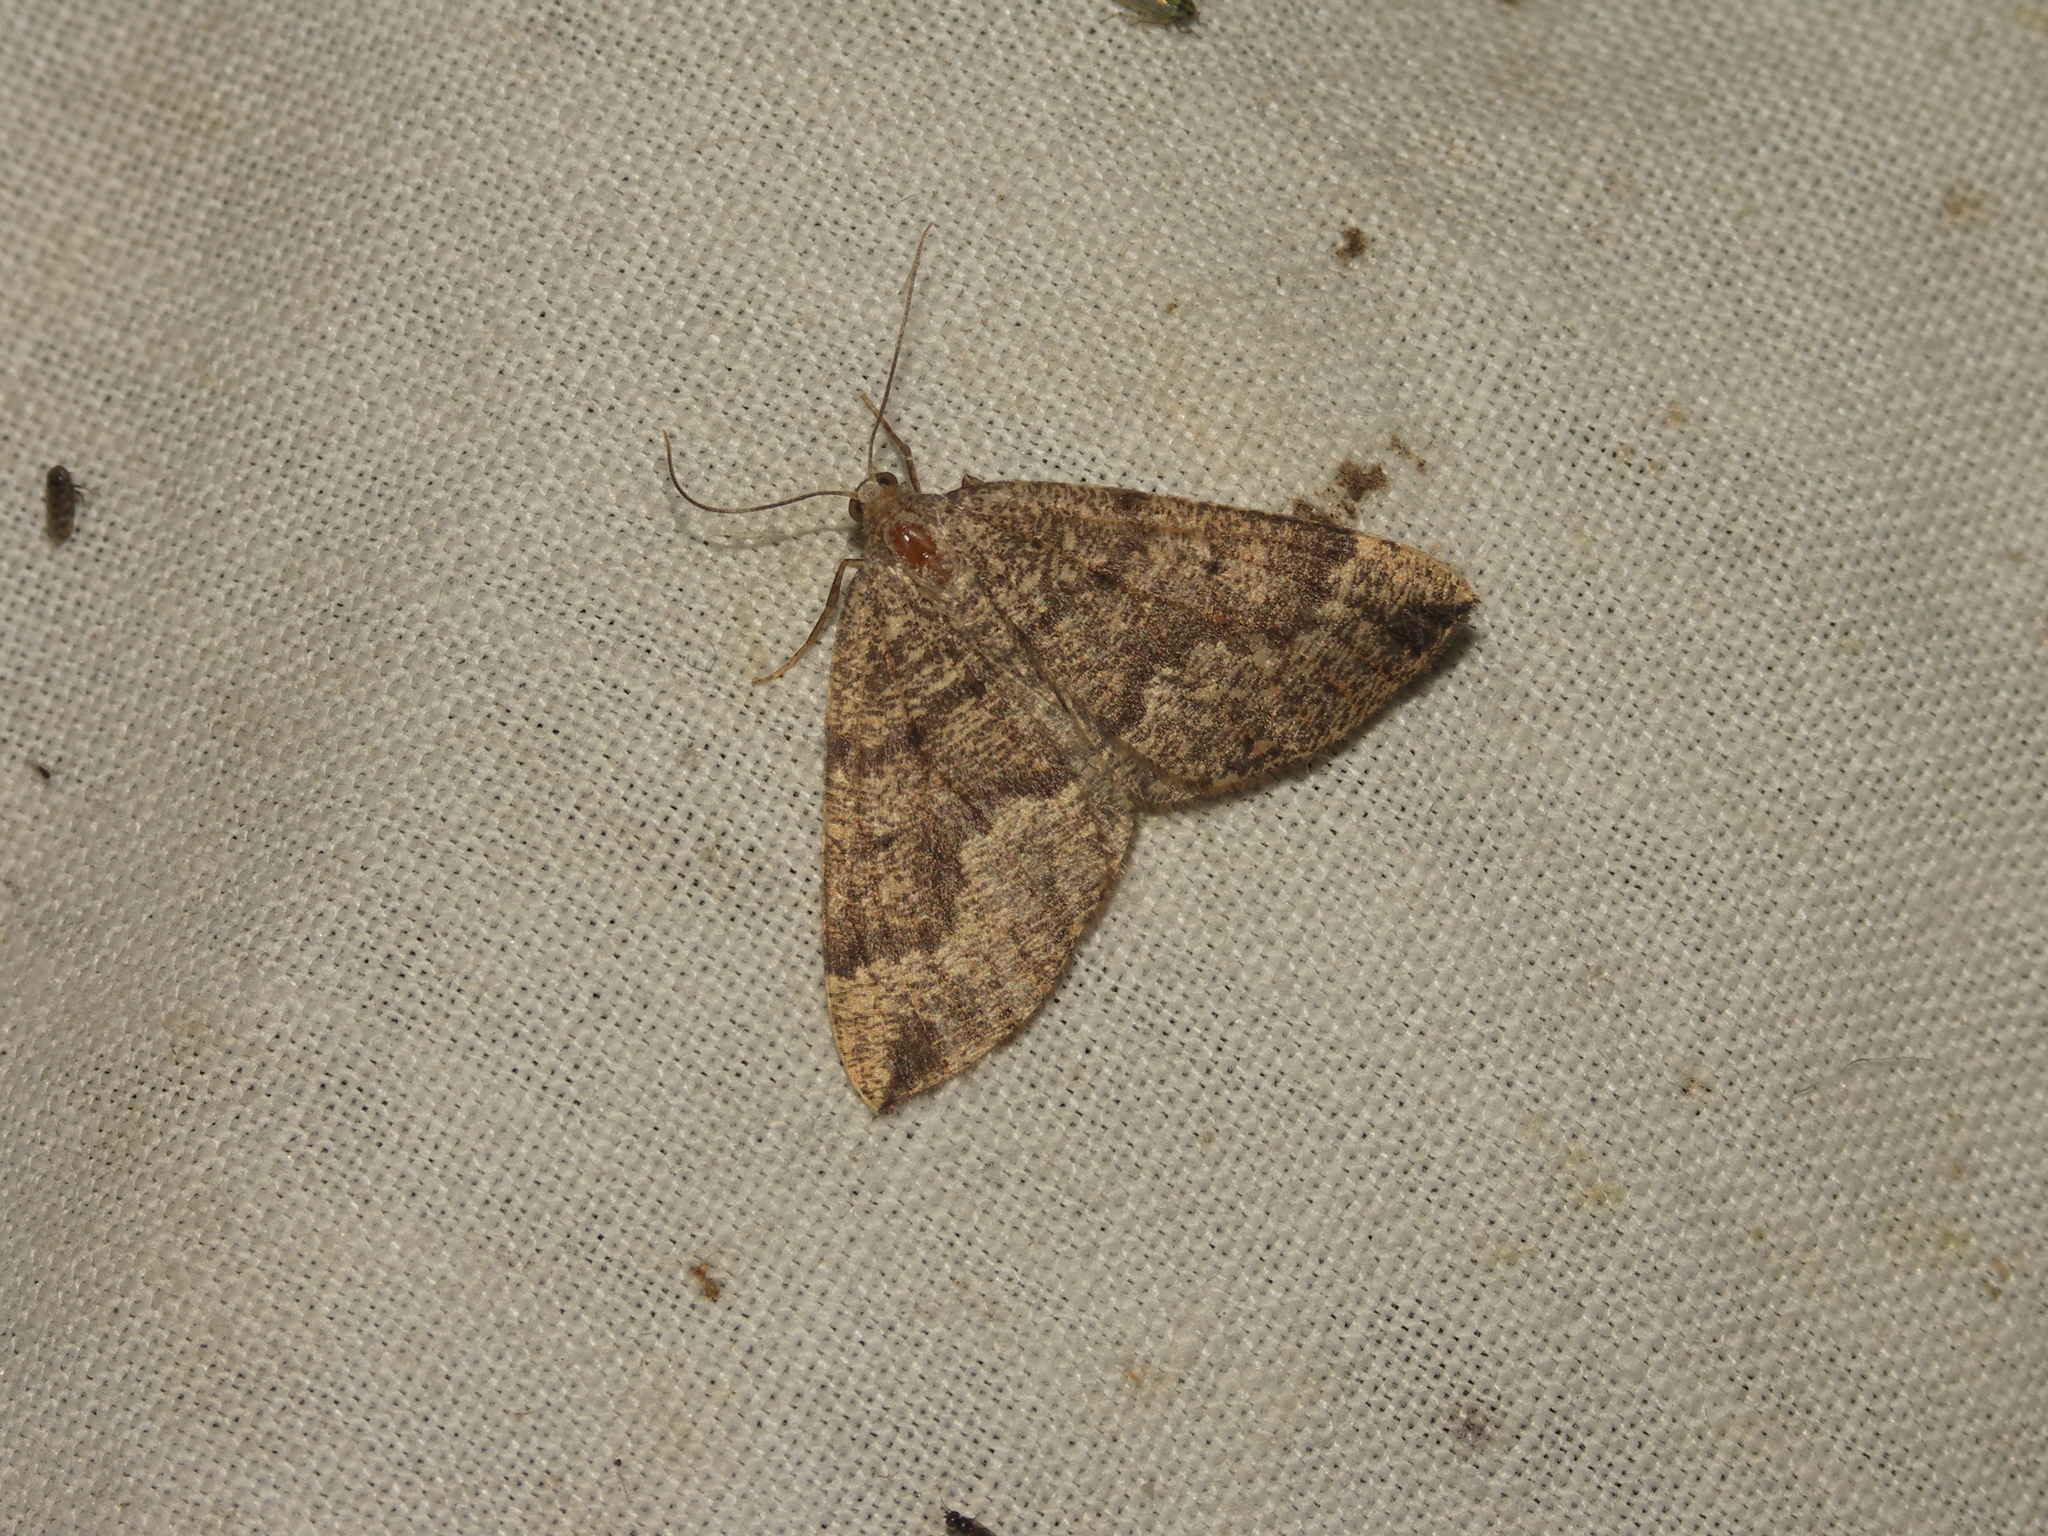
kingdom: Animalia
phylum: Arthropoda
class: Insecta
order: Lepidoptera
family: Geometridae
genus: Pungeleria
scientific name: Pungeleria capreolaria
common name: Banded pine carpet
